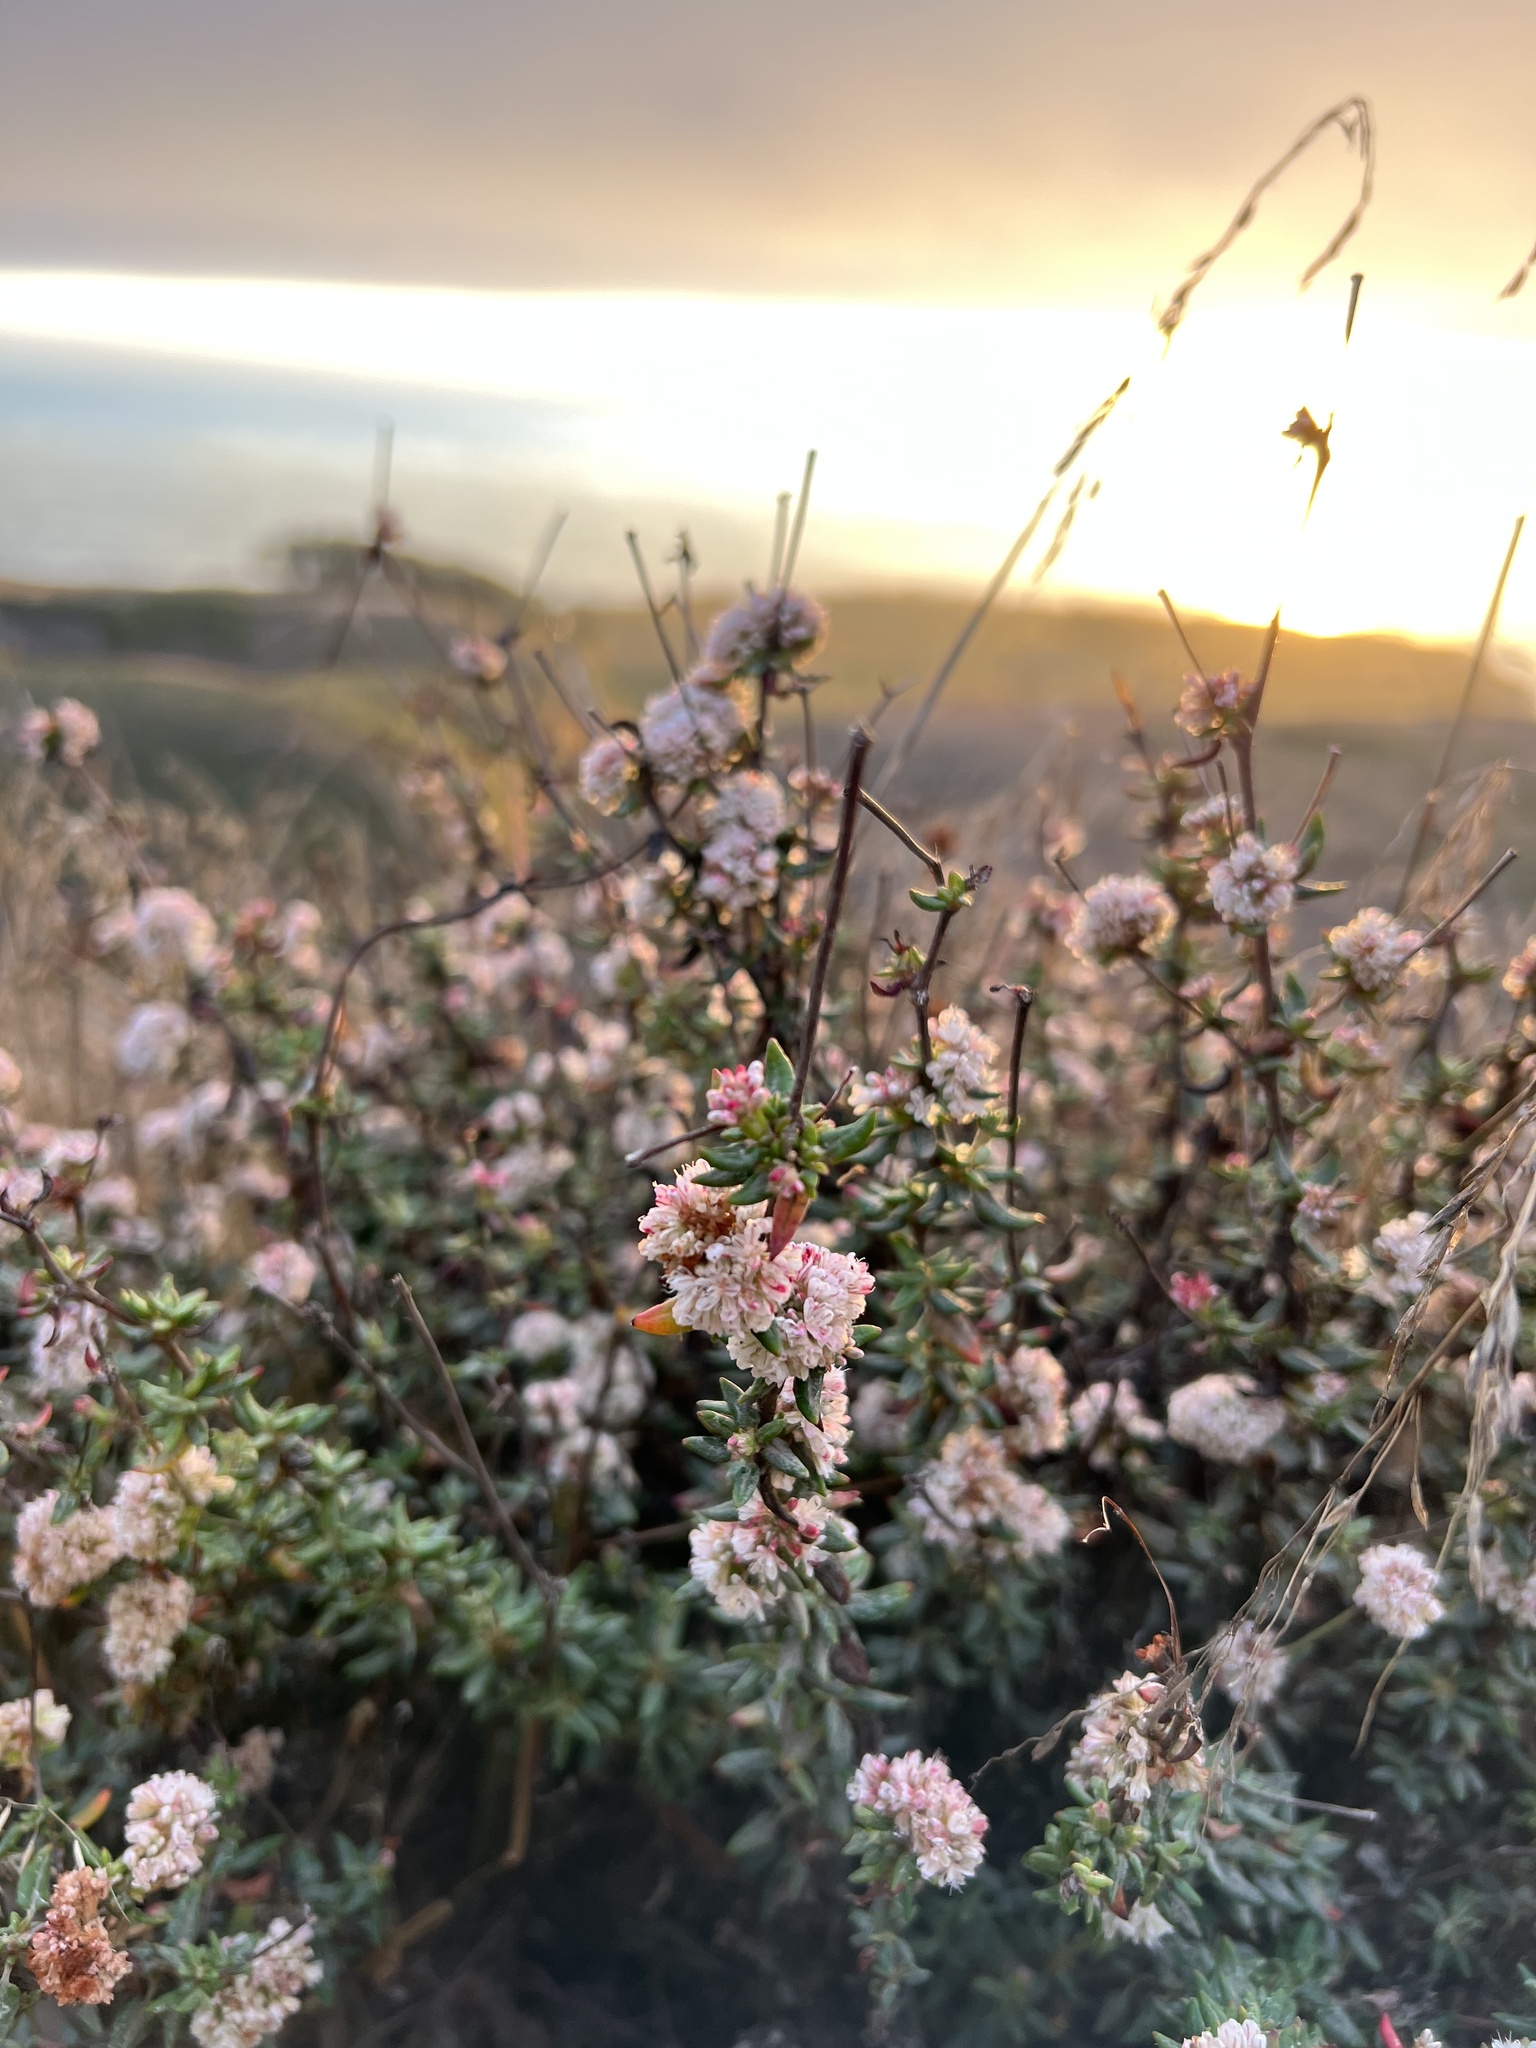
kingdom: Plantae
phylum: Tracheophyta
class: Magnoliopsida
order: Caryophyllales
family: Polygonaceae
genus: Eriogonum
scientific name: Eriogonum parvifolium
